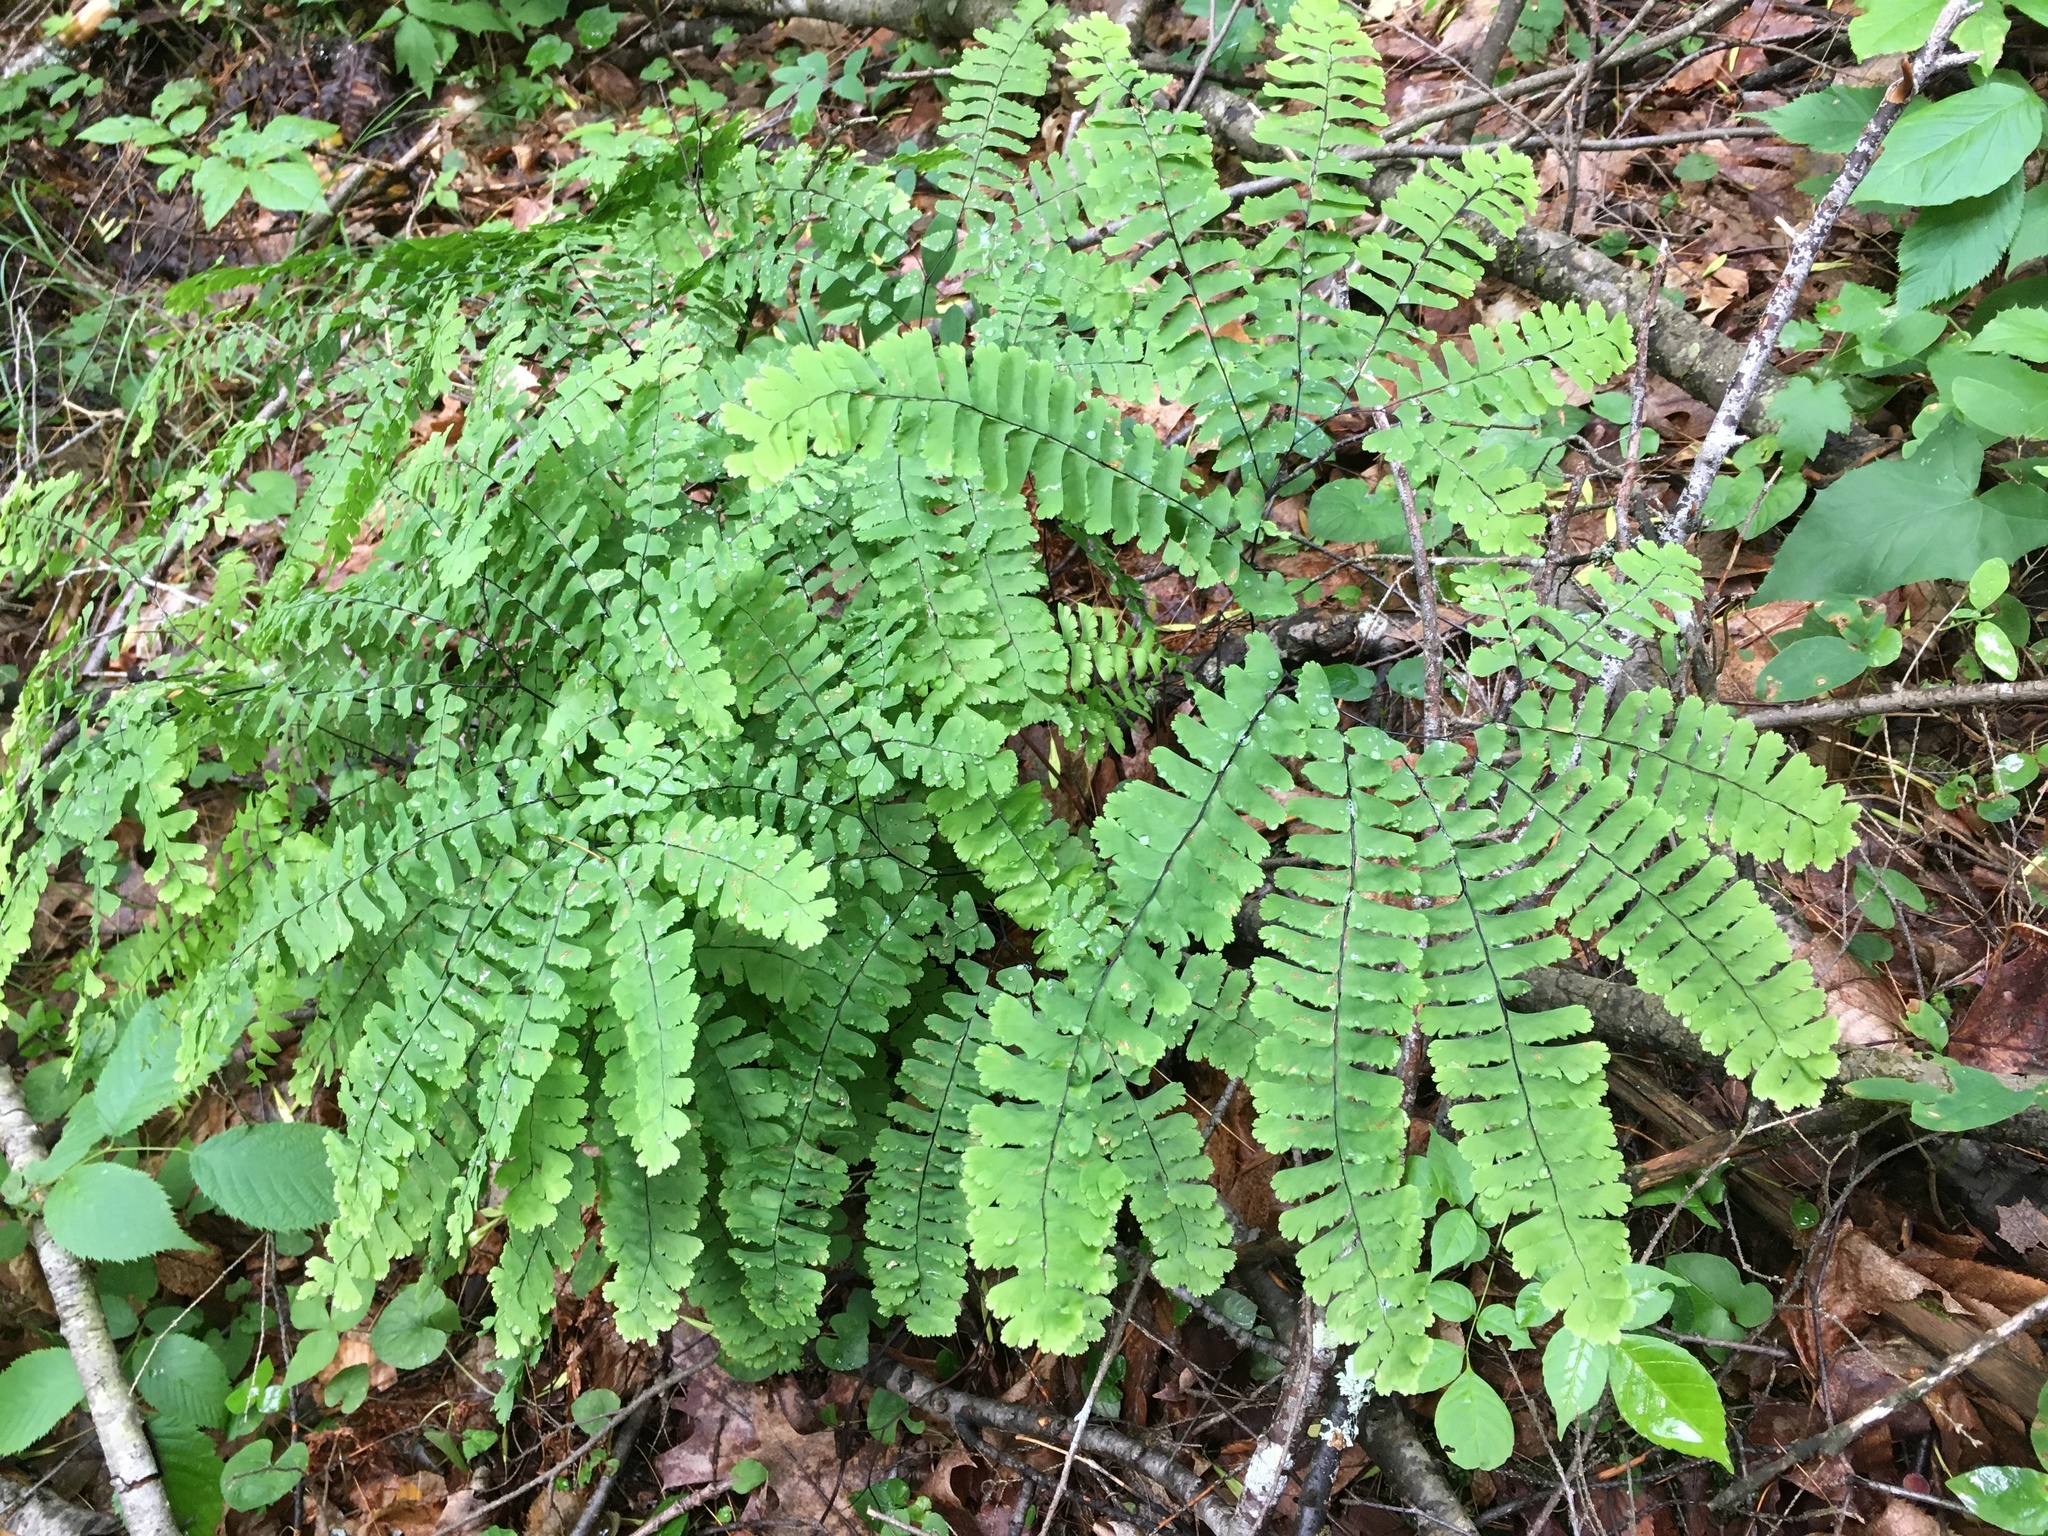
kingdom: Plantae
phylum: Tracheophyta
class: Polypodiopsida
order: Polypodiales
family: Pteridaceae
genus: Adiantum
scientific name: Adiantum pedatum
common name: Five-finger fern
